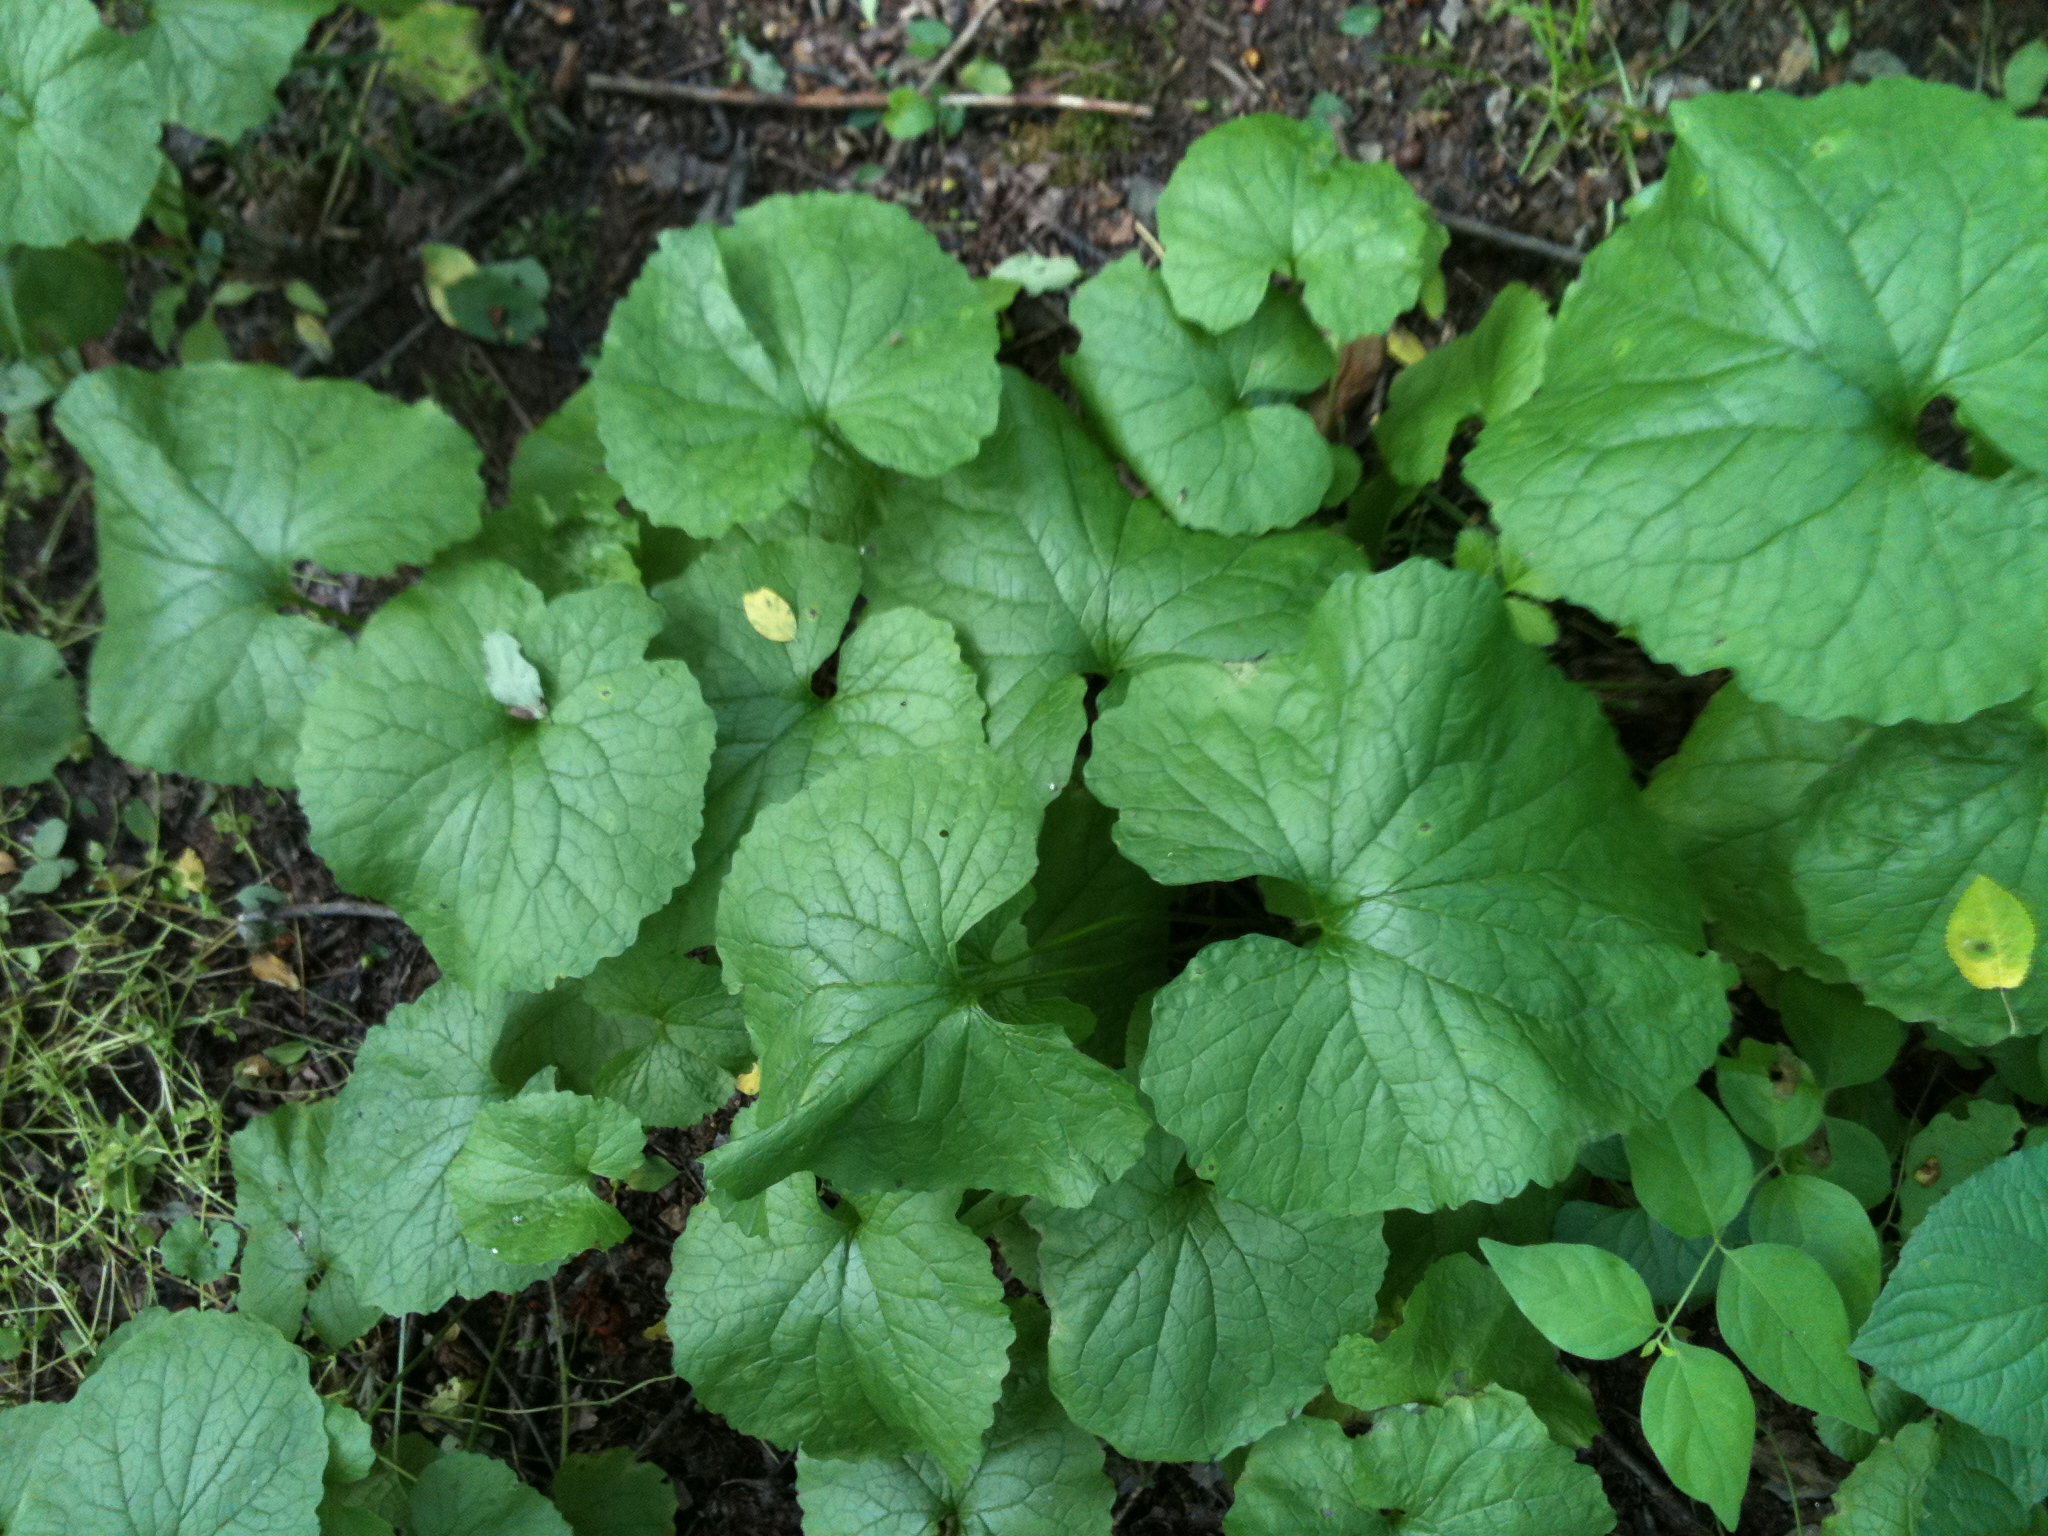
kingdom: Plantae
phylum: Tracheophyta
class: Magnoliopsida
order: Brassicales
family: Brassicaceae
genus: Alliaria
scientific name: Alliaria petiolata
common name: Garlic mustard
